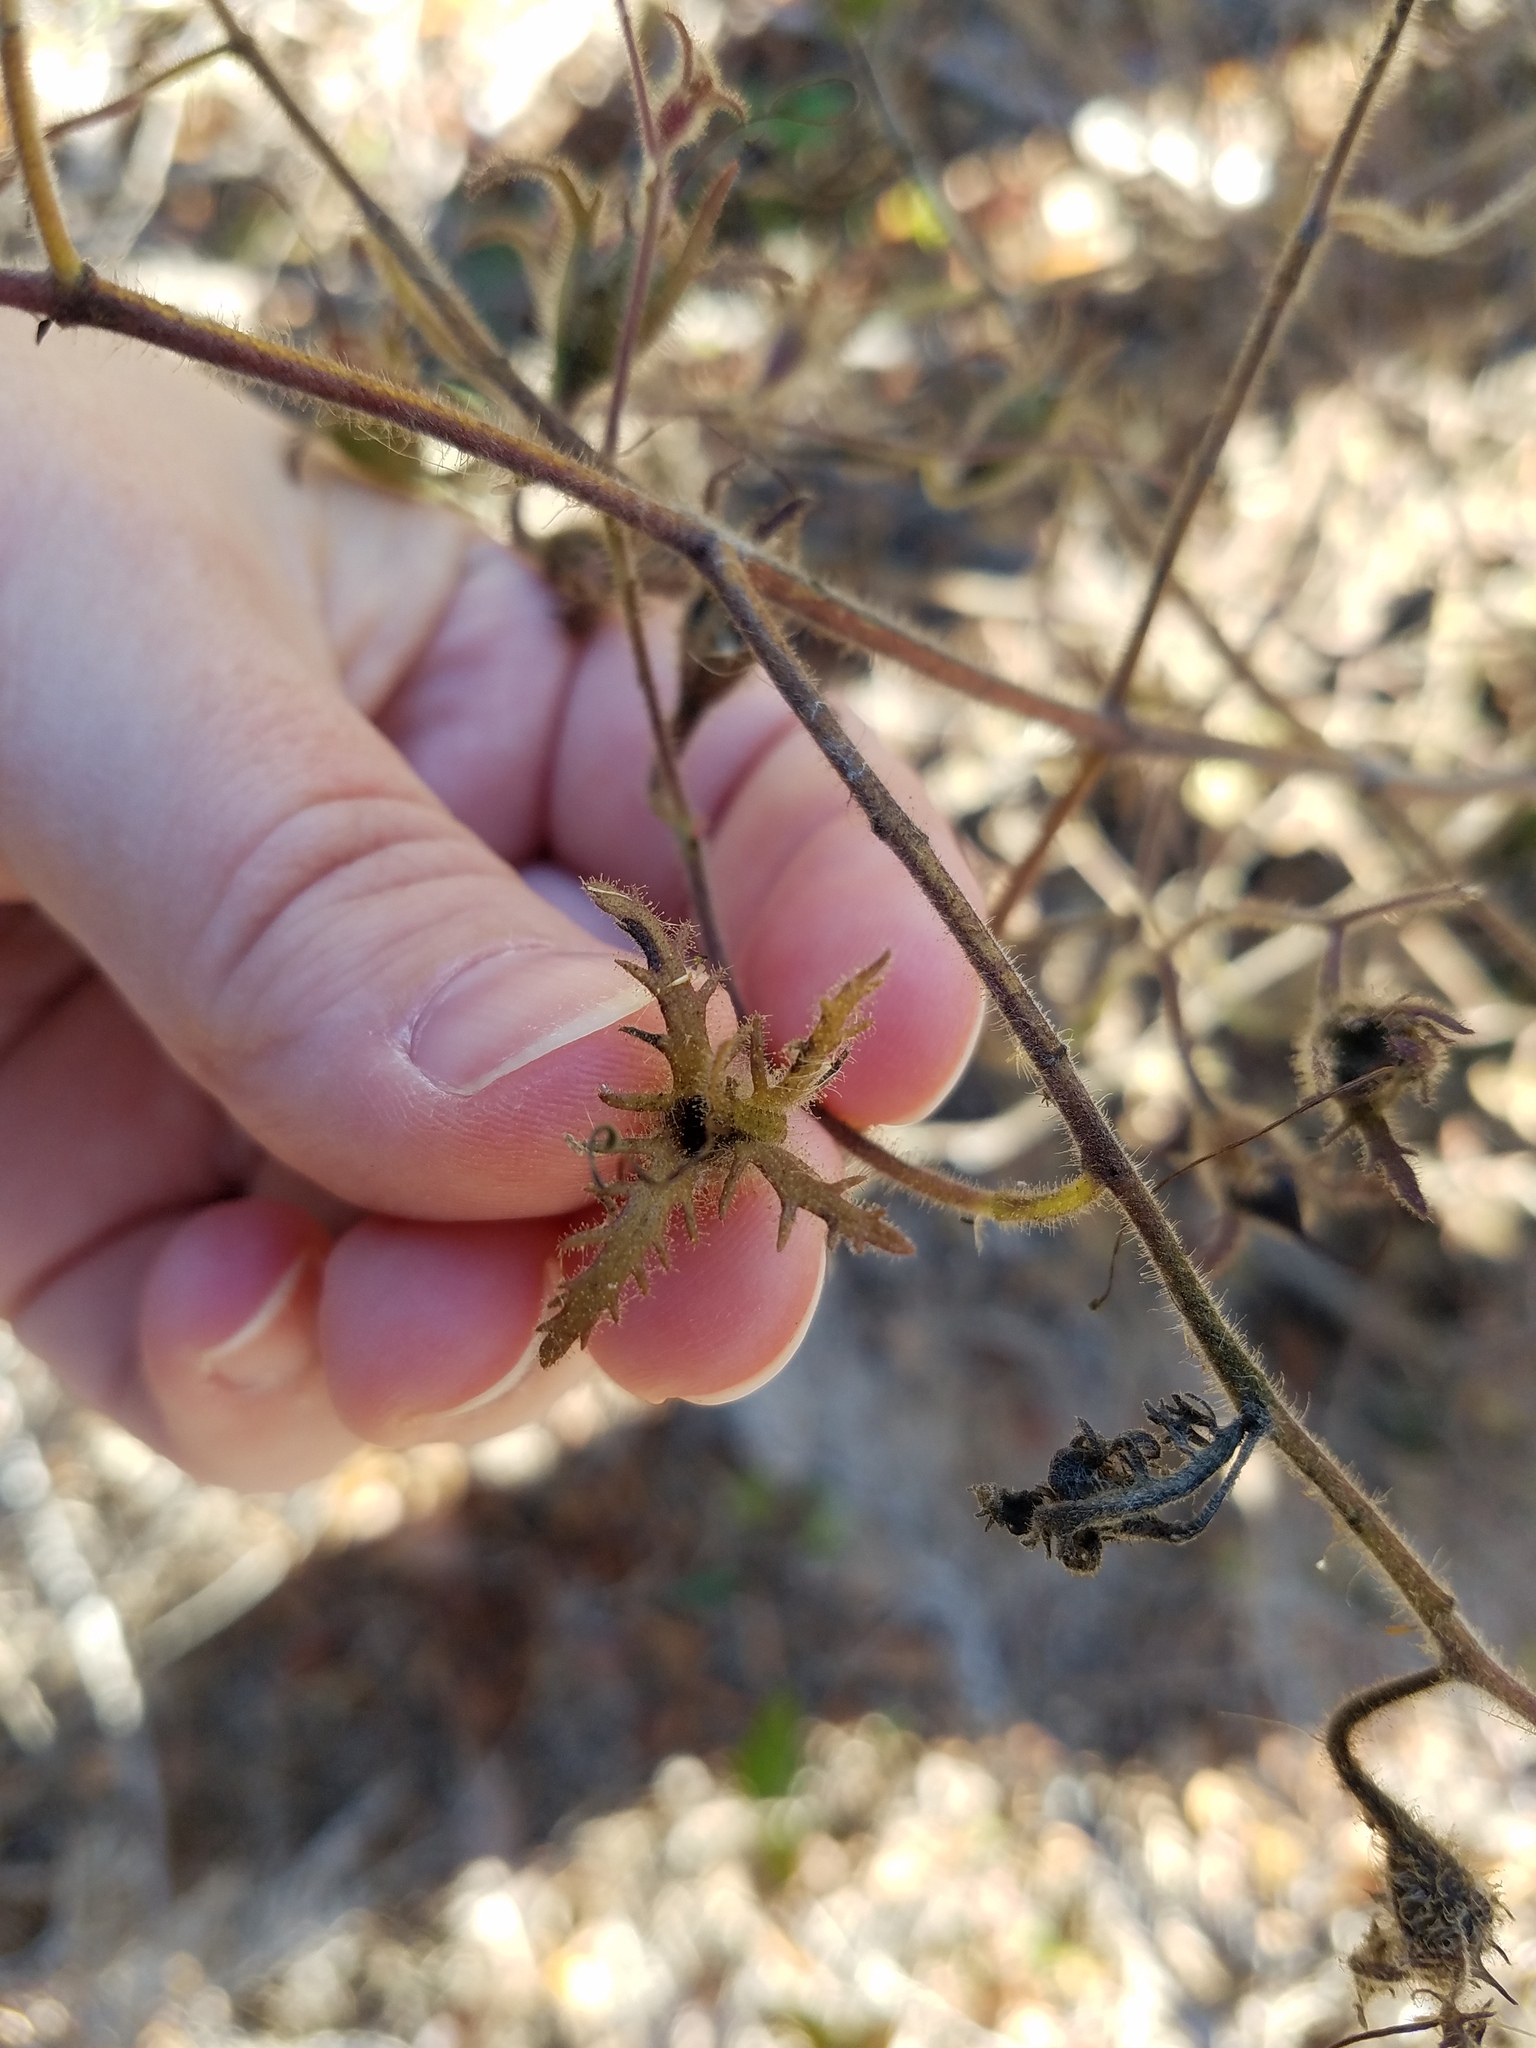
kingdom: Plantae
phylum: Tracheophyta
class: Magnoliopsida
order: Lamiales
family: Orobanchaceae
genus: Aureolaria
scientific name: Aureolaria pectinata
